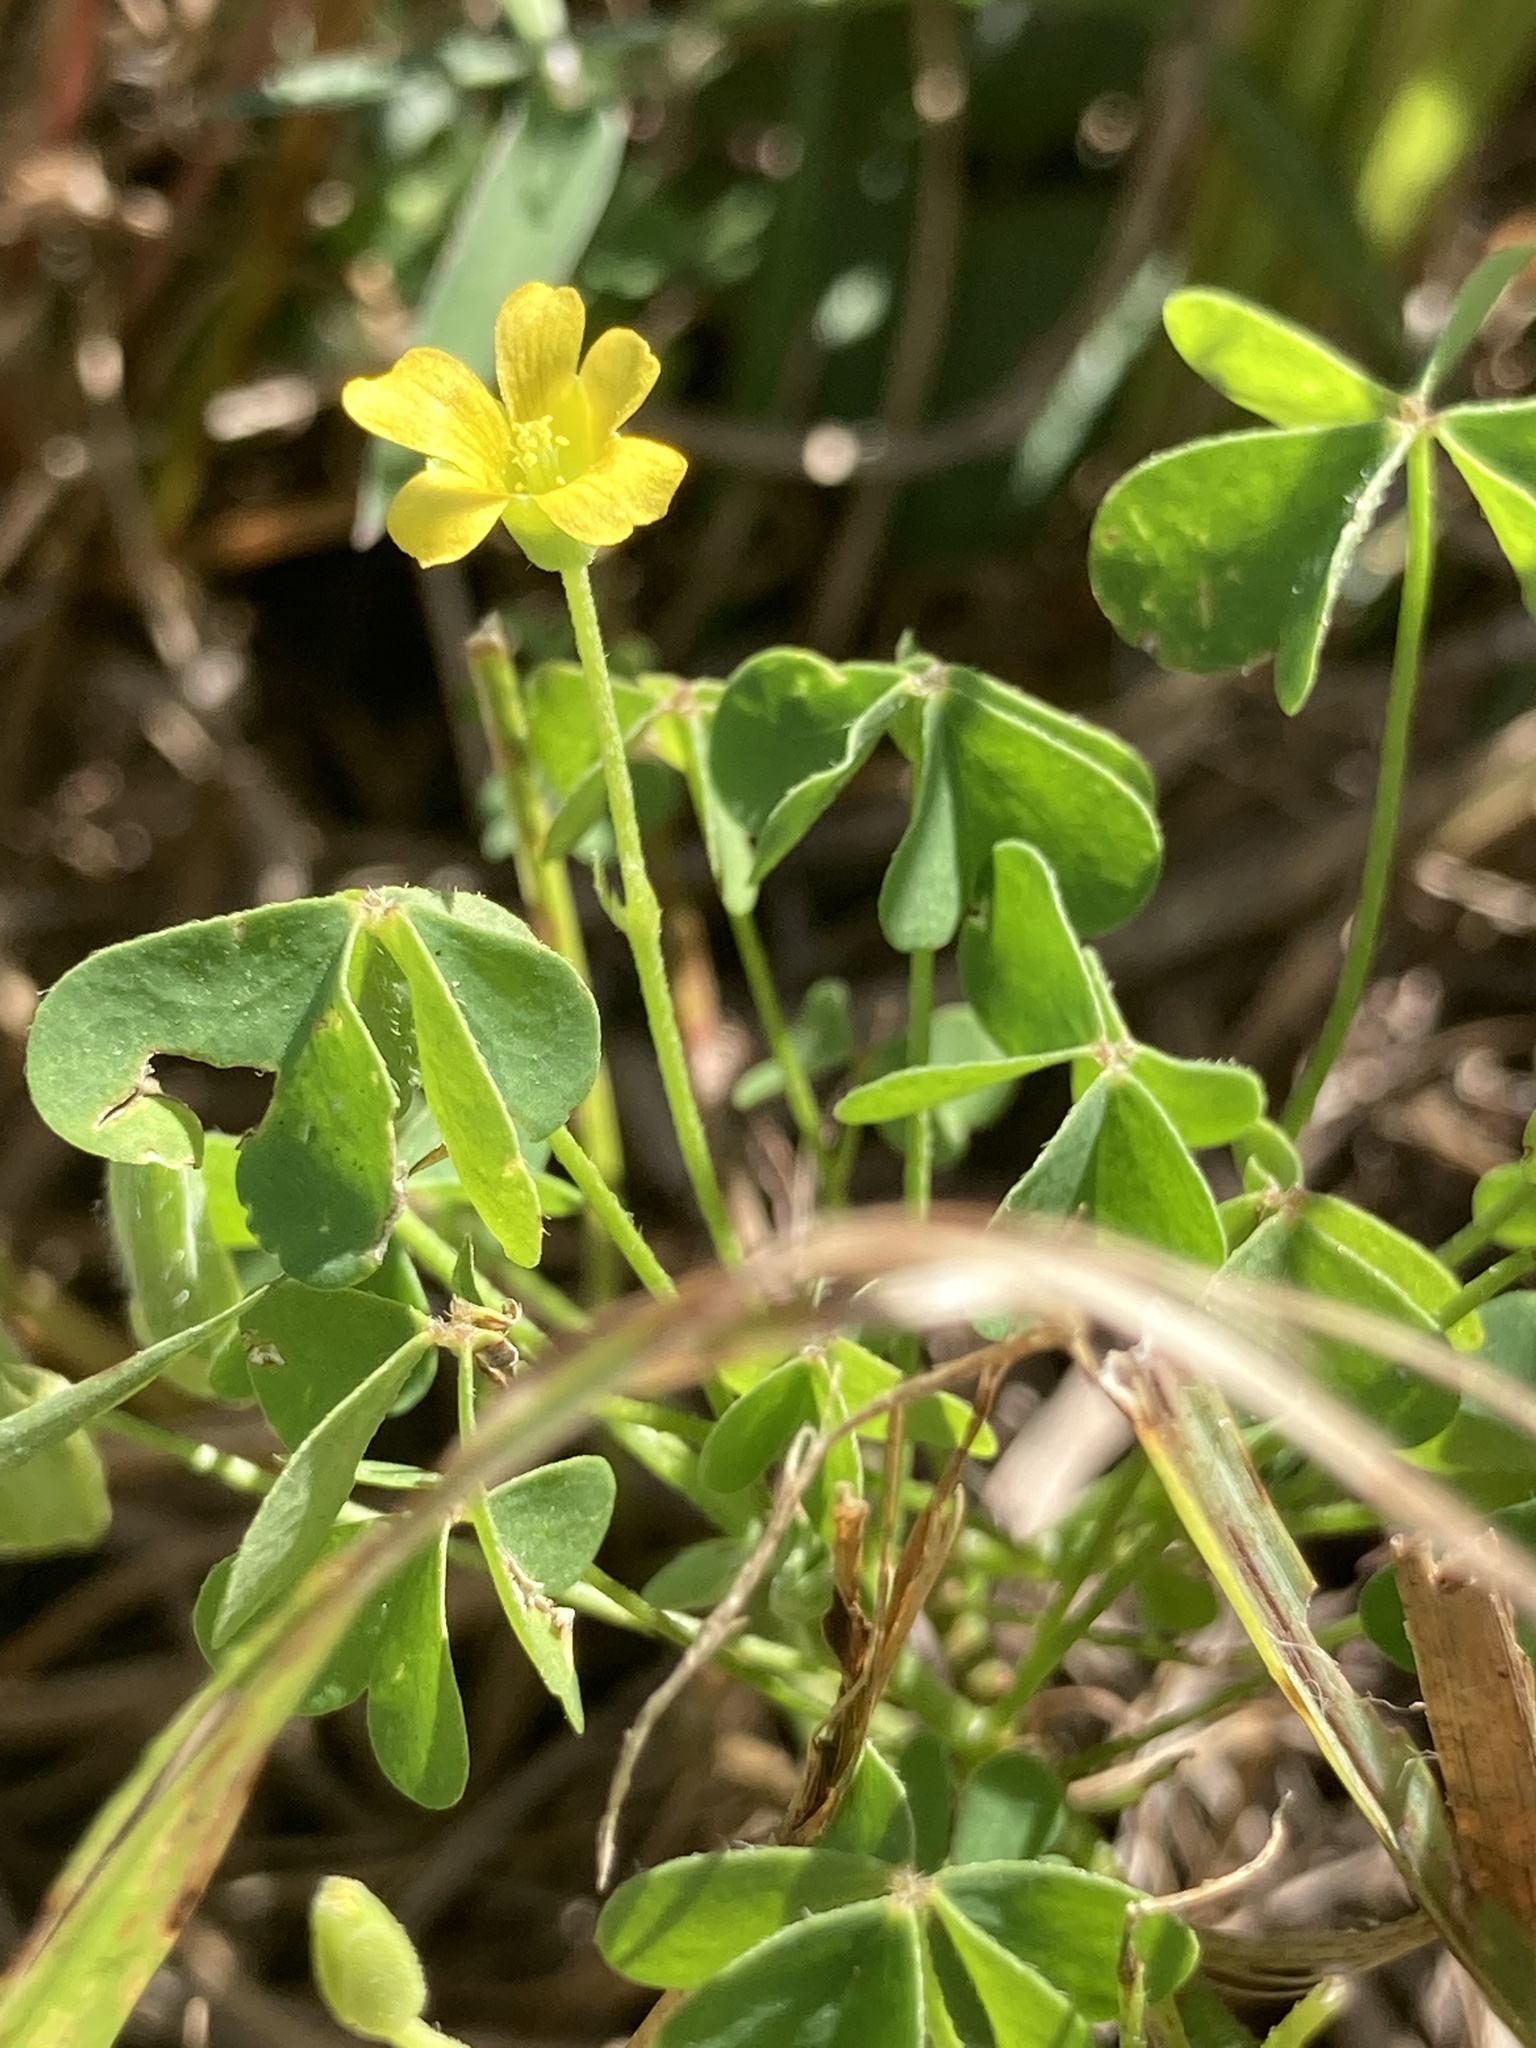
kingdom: Plantae
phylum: Tracheophyta
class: Magnoliopsida
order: Oxalidales
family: Oxalidaceae
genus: Oxalis
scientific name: Oxalis stricta
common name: Upright yellow-sorrel
